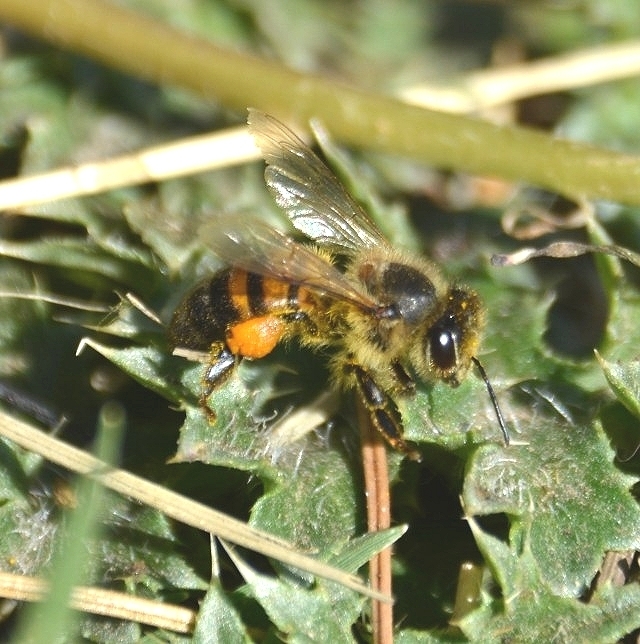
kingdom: Animalia
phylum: Arthropoda
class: Insecta
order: Hymenoptera
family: Apidae
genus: Apis
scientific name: Apis mellifera
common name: Honey bee
